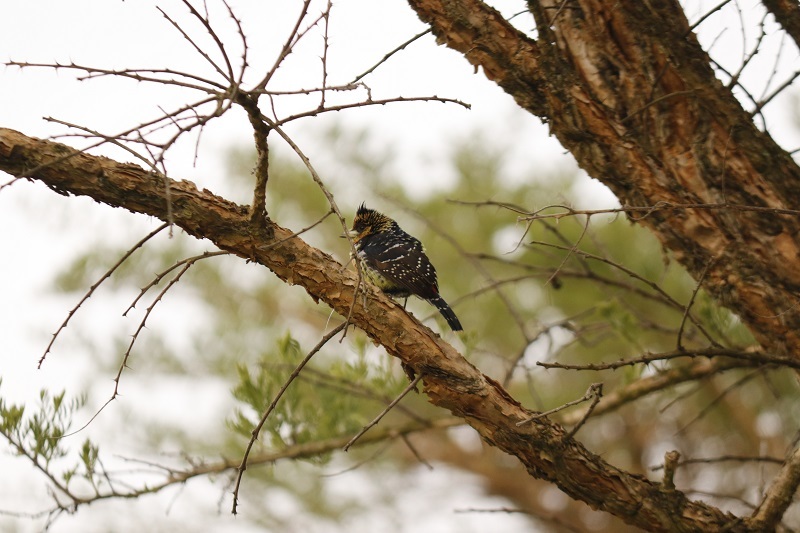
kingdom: Animalia
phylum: Chordata
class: Aves
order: Piciformes
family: Lybiidae
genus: Trachyphonus
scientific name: Trachyphonus vaillantii
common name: Crested barbet
